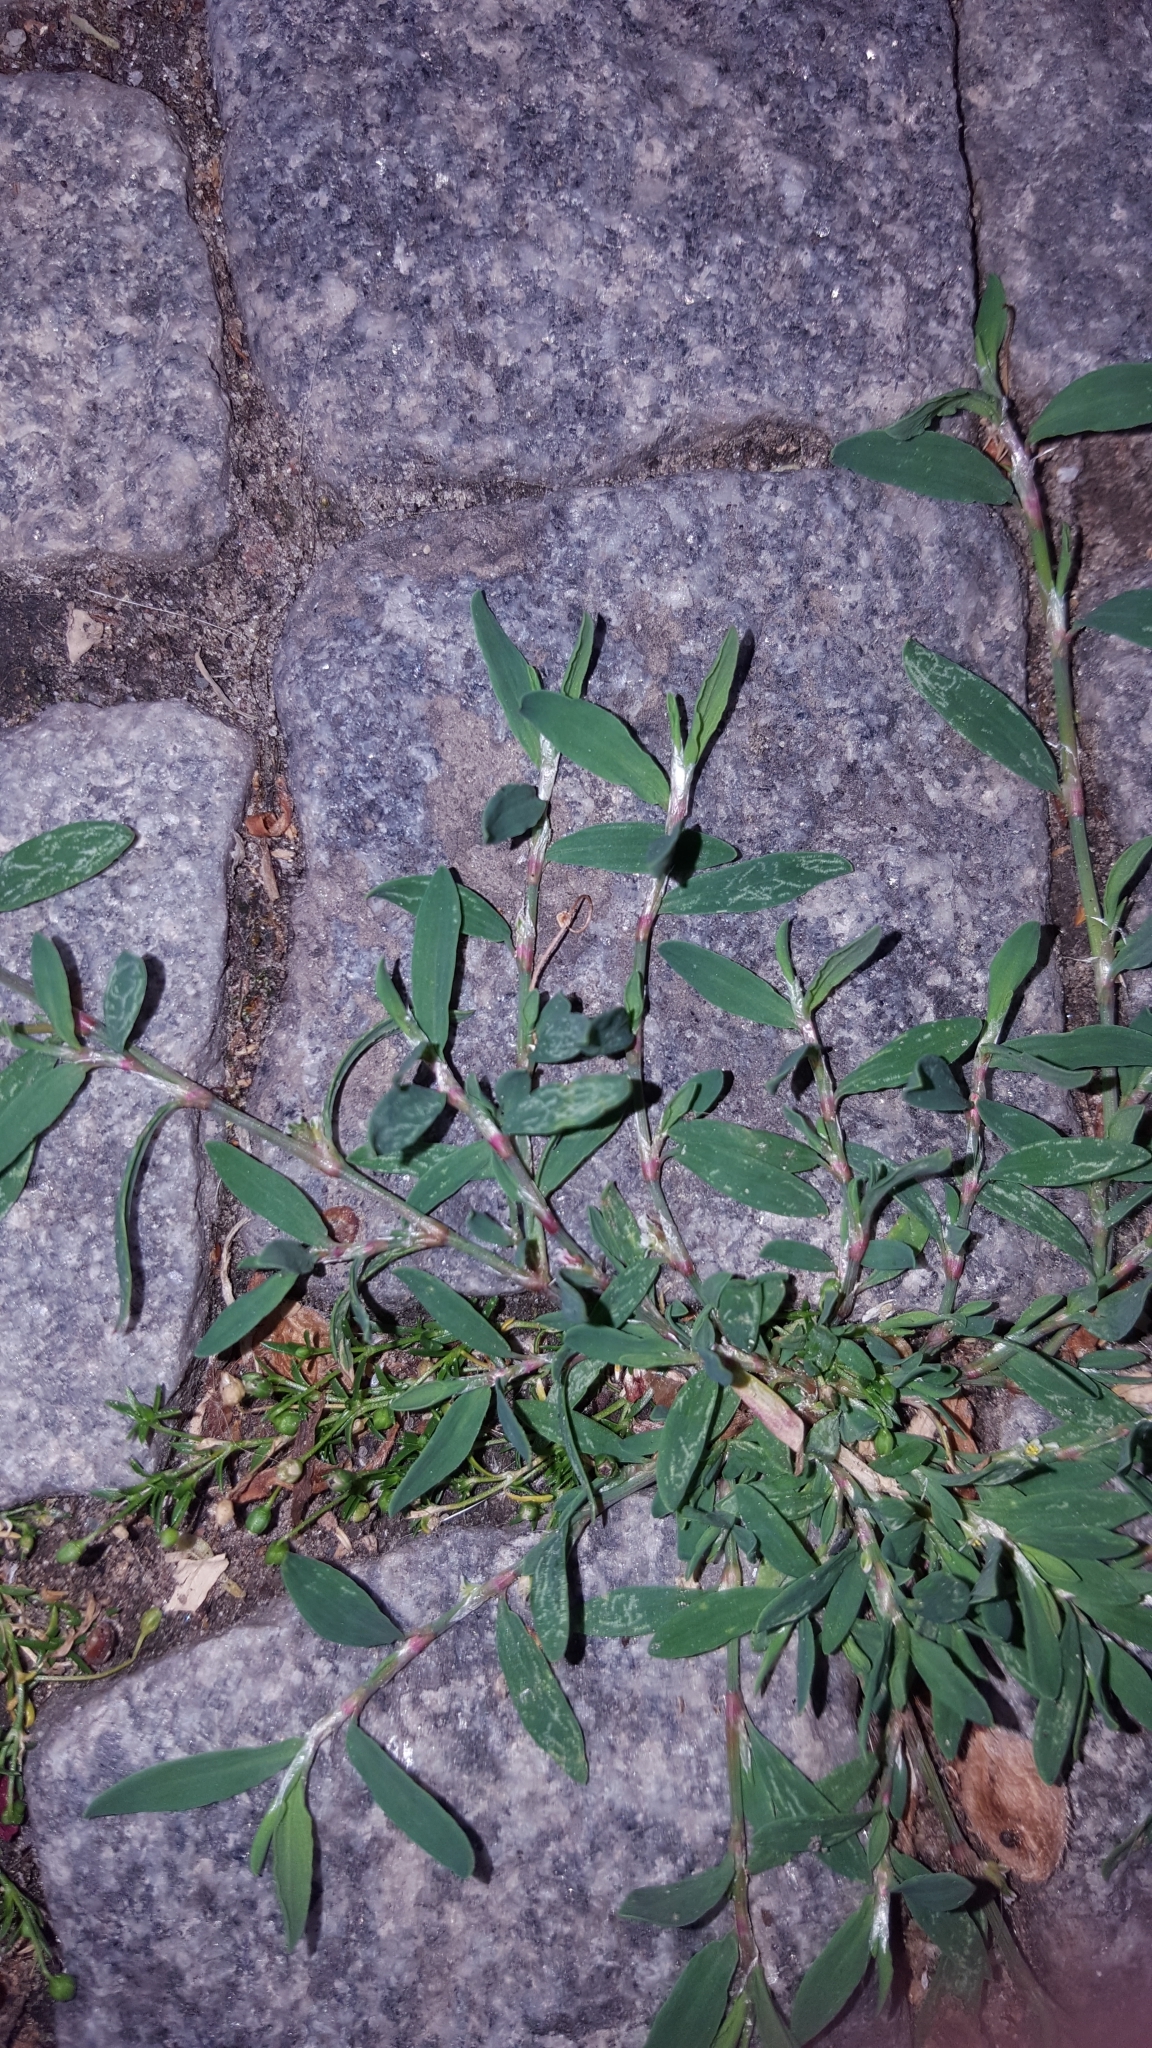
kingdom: Plantae
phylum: Tracheophyta
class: Magnoliopsida
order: Caryophyllales
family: Caryophyllaceae
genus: Sagina
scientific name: Sagina procumbens
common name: Procumbent pearlwort
